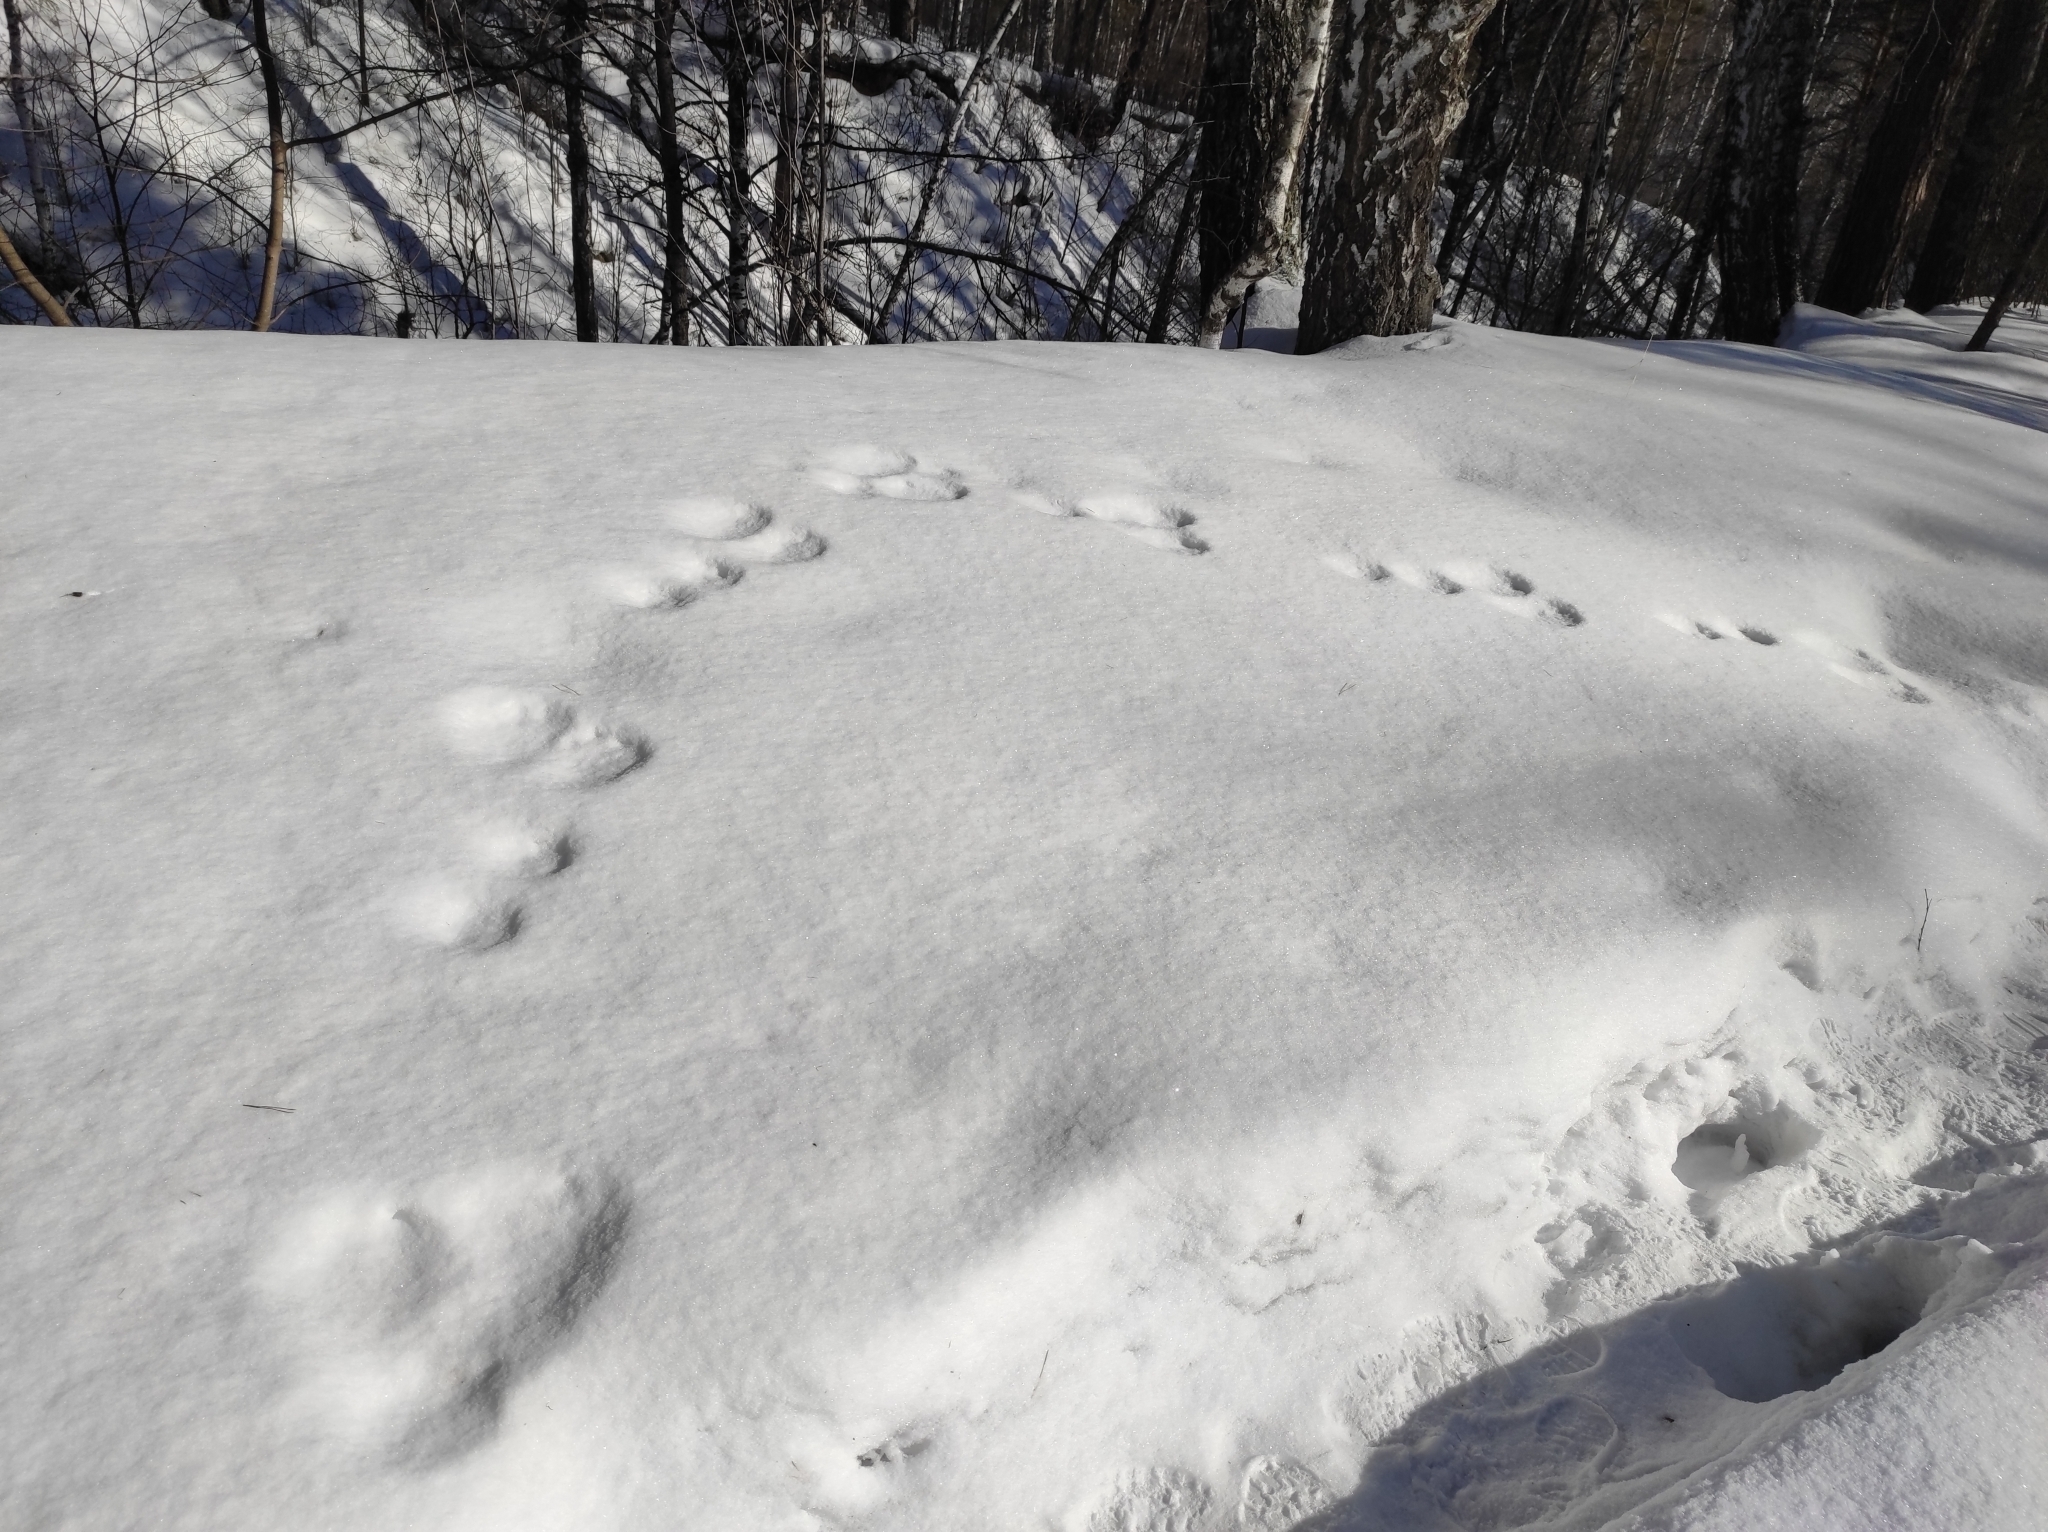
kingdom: Animalia
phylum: Chordata
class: Mammalia
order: Lagomorpha
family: Leporidae
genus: Lepus
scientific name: Lepus timidus
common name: Mountain hare
